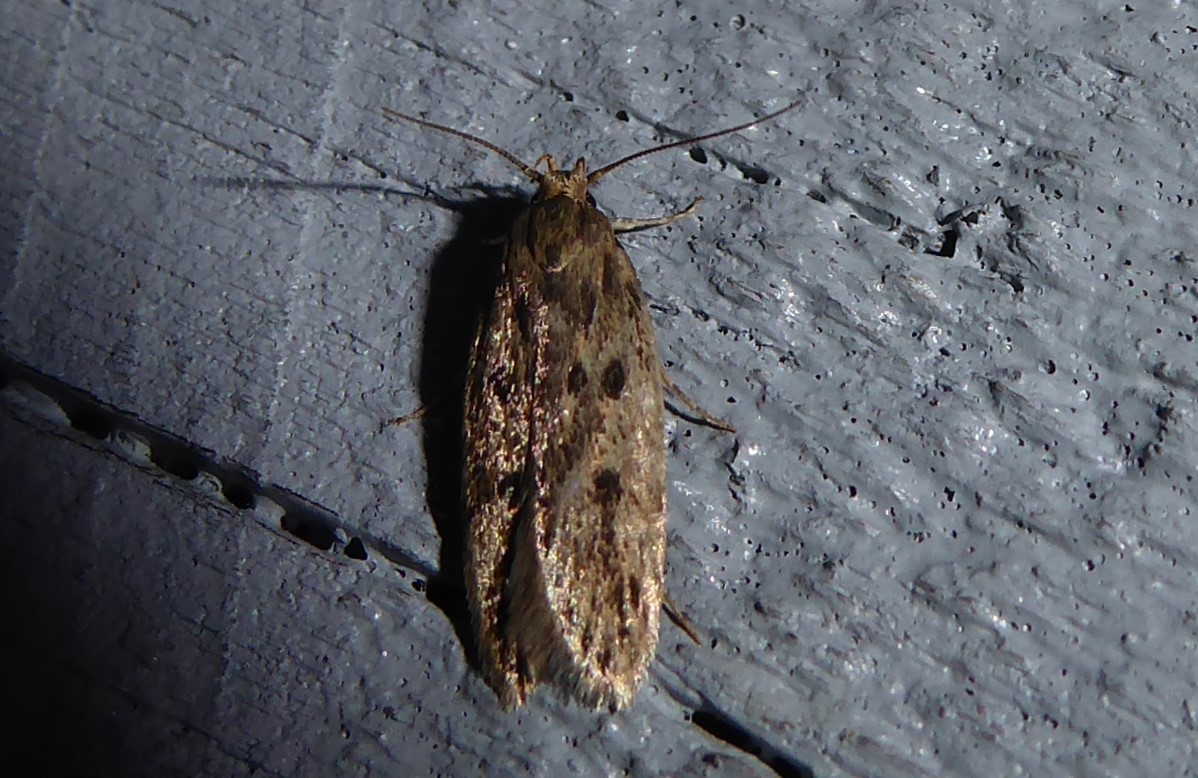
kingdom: Animalia
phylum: Arthropoda
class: Insecta
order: Lepidoptera
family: Oecophoridae
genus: Hofmannophila
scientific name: Hofmannophila pseudospretella
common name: Brown house moth
